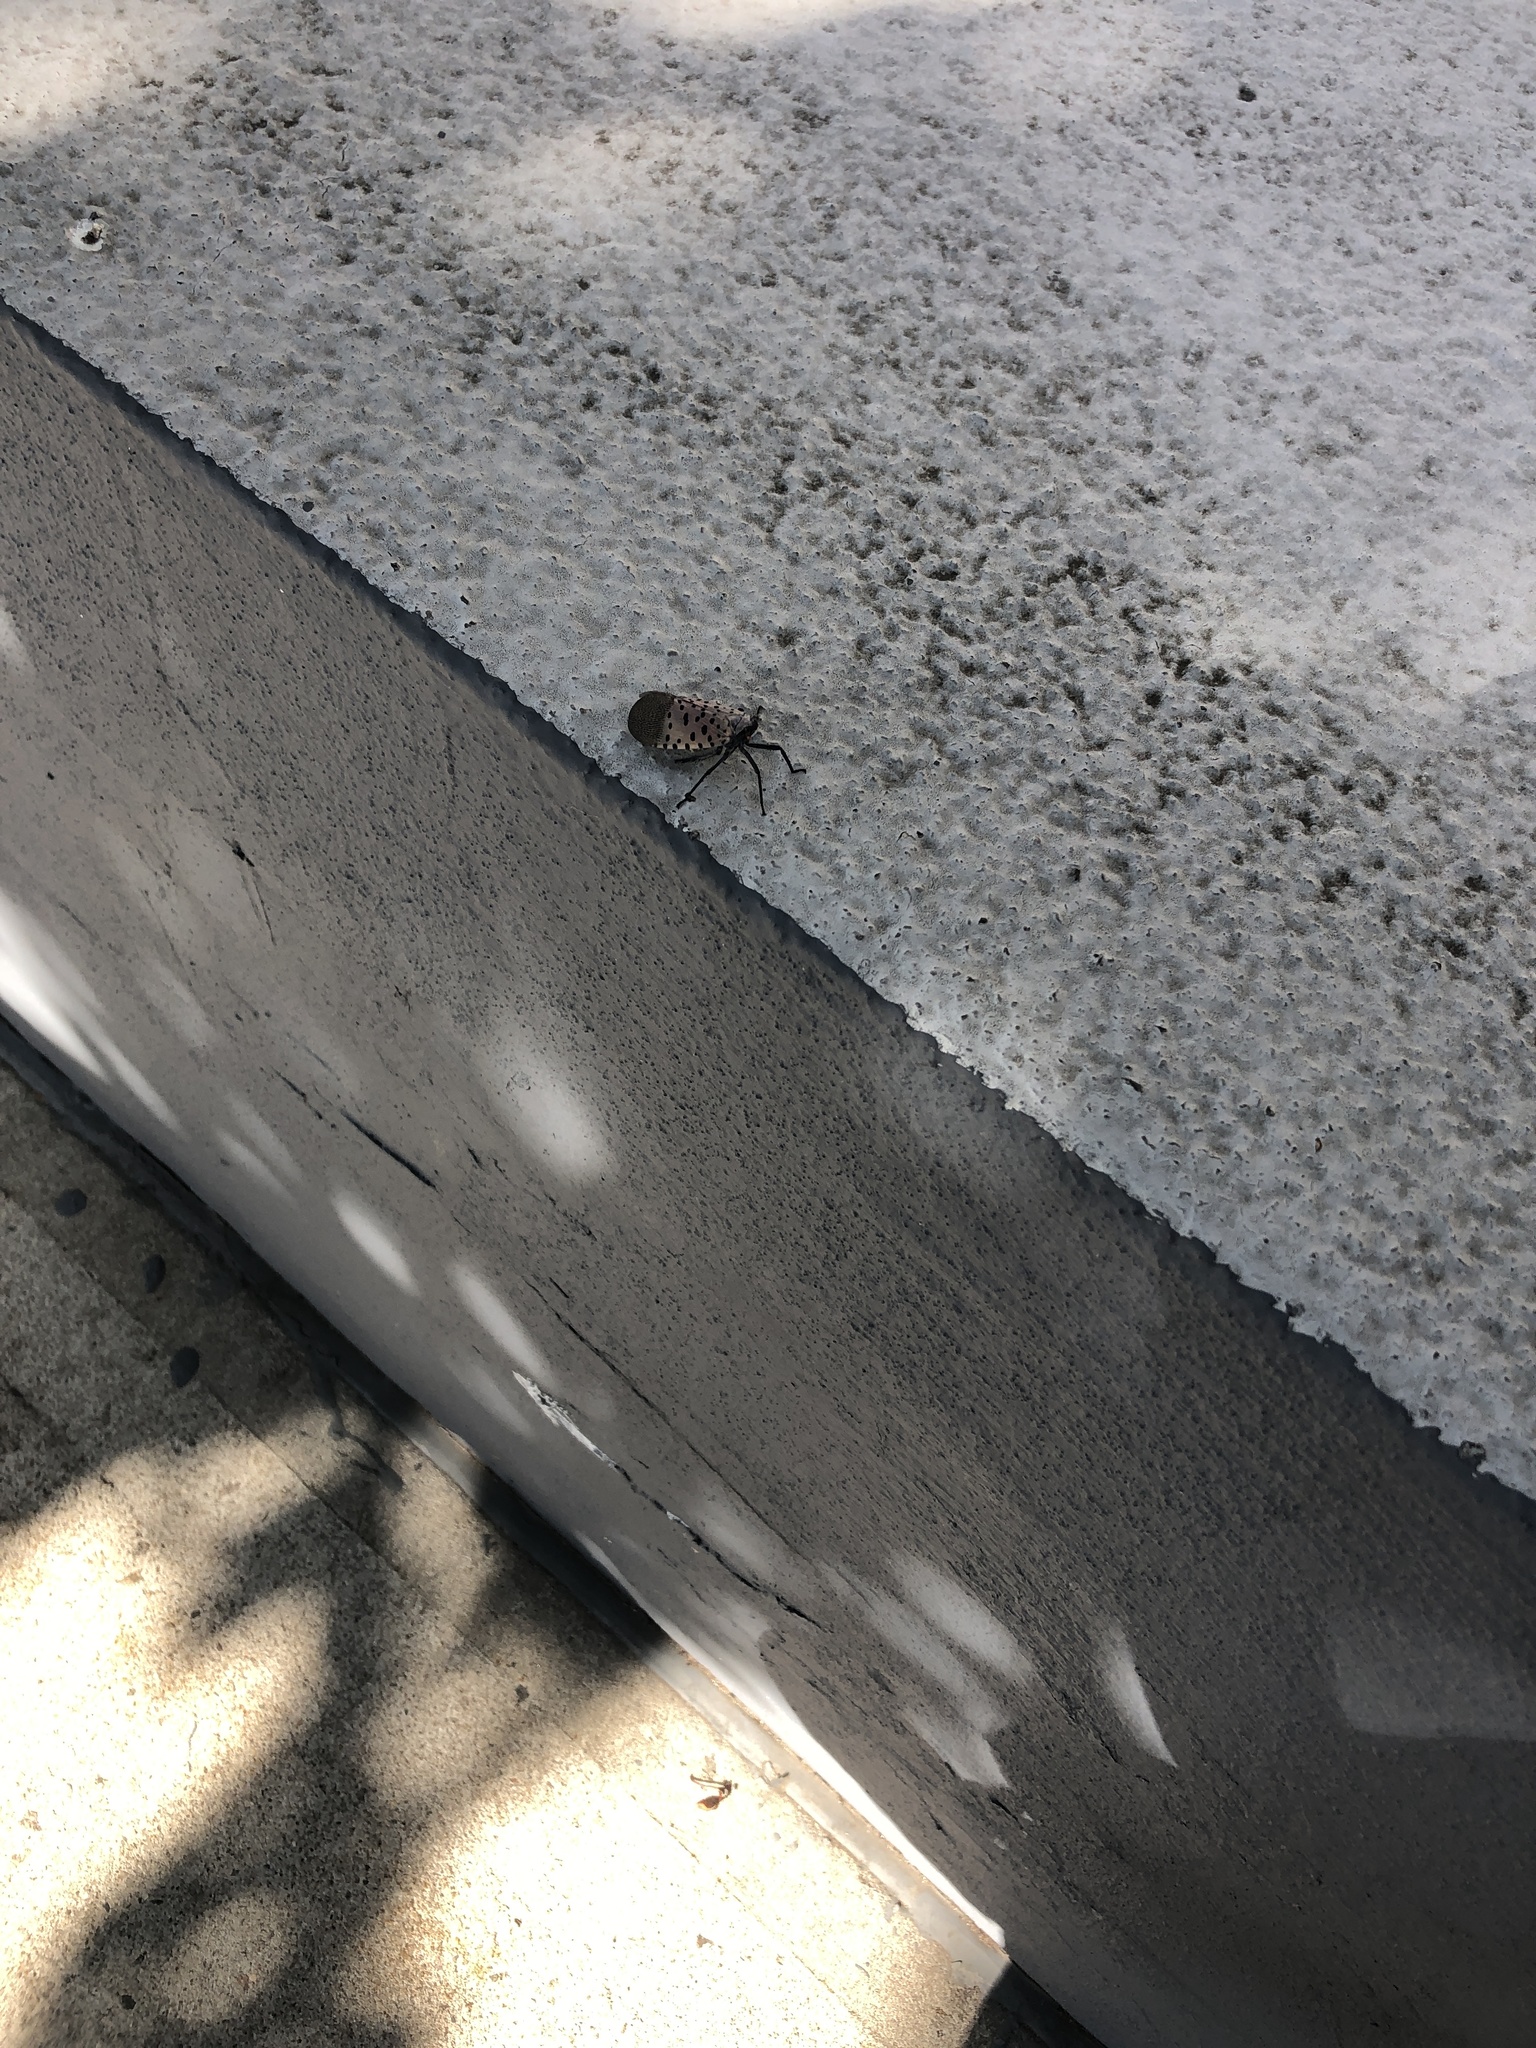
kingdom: Animalia
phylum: Arthropoda
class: Insecta
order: Hemiptera
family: Fulgoridae
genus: Lycorma
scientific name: Lycorma delicatula
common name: Spotted lanternfly
